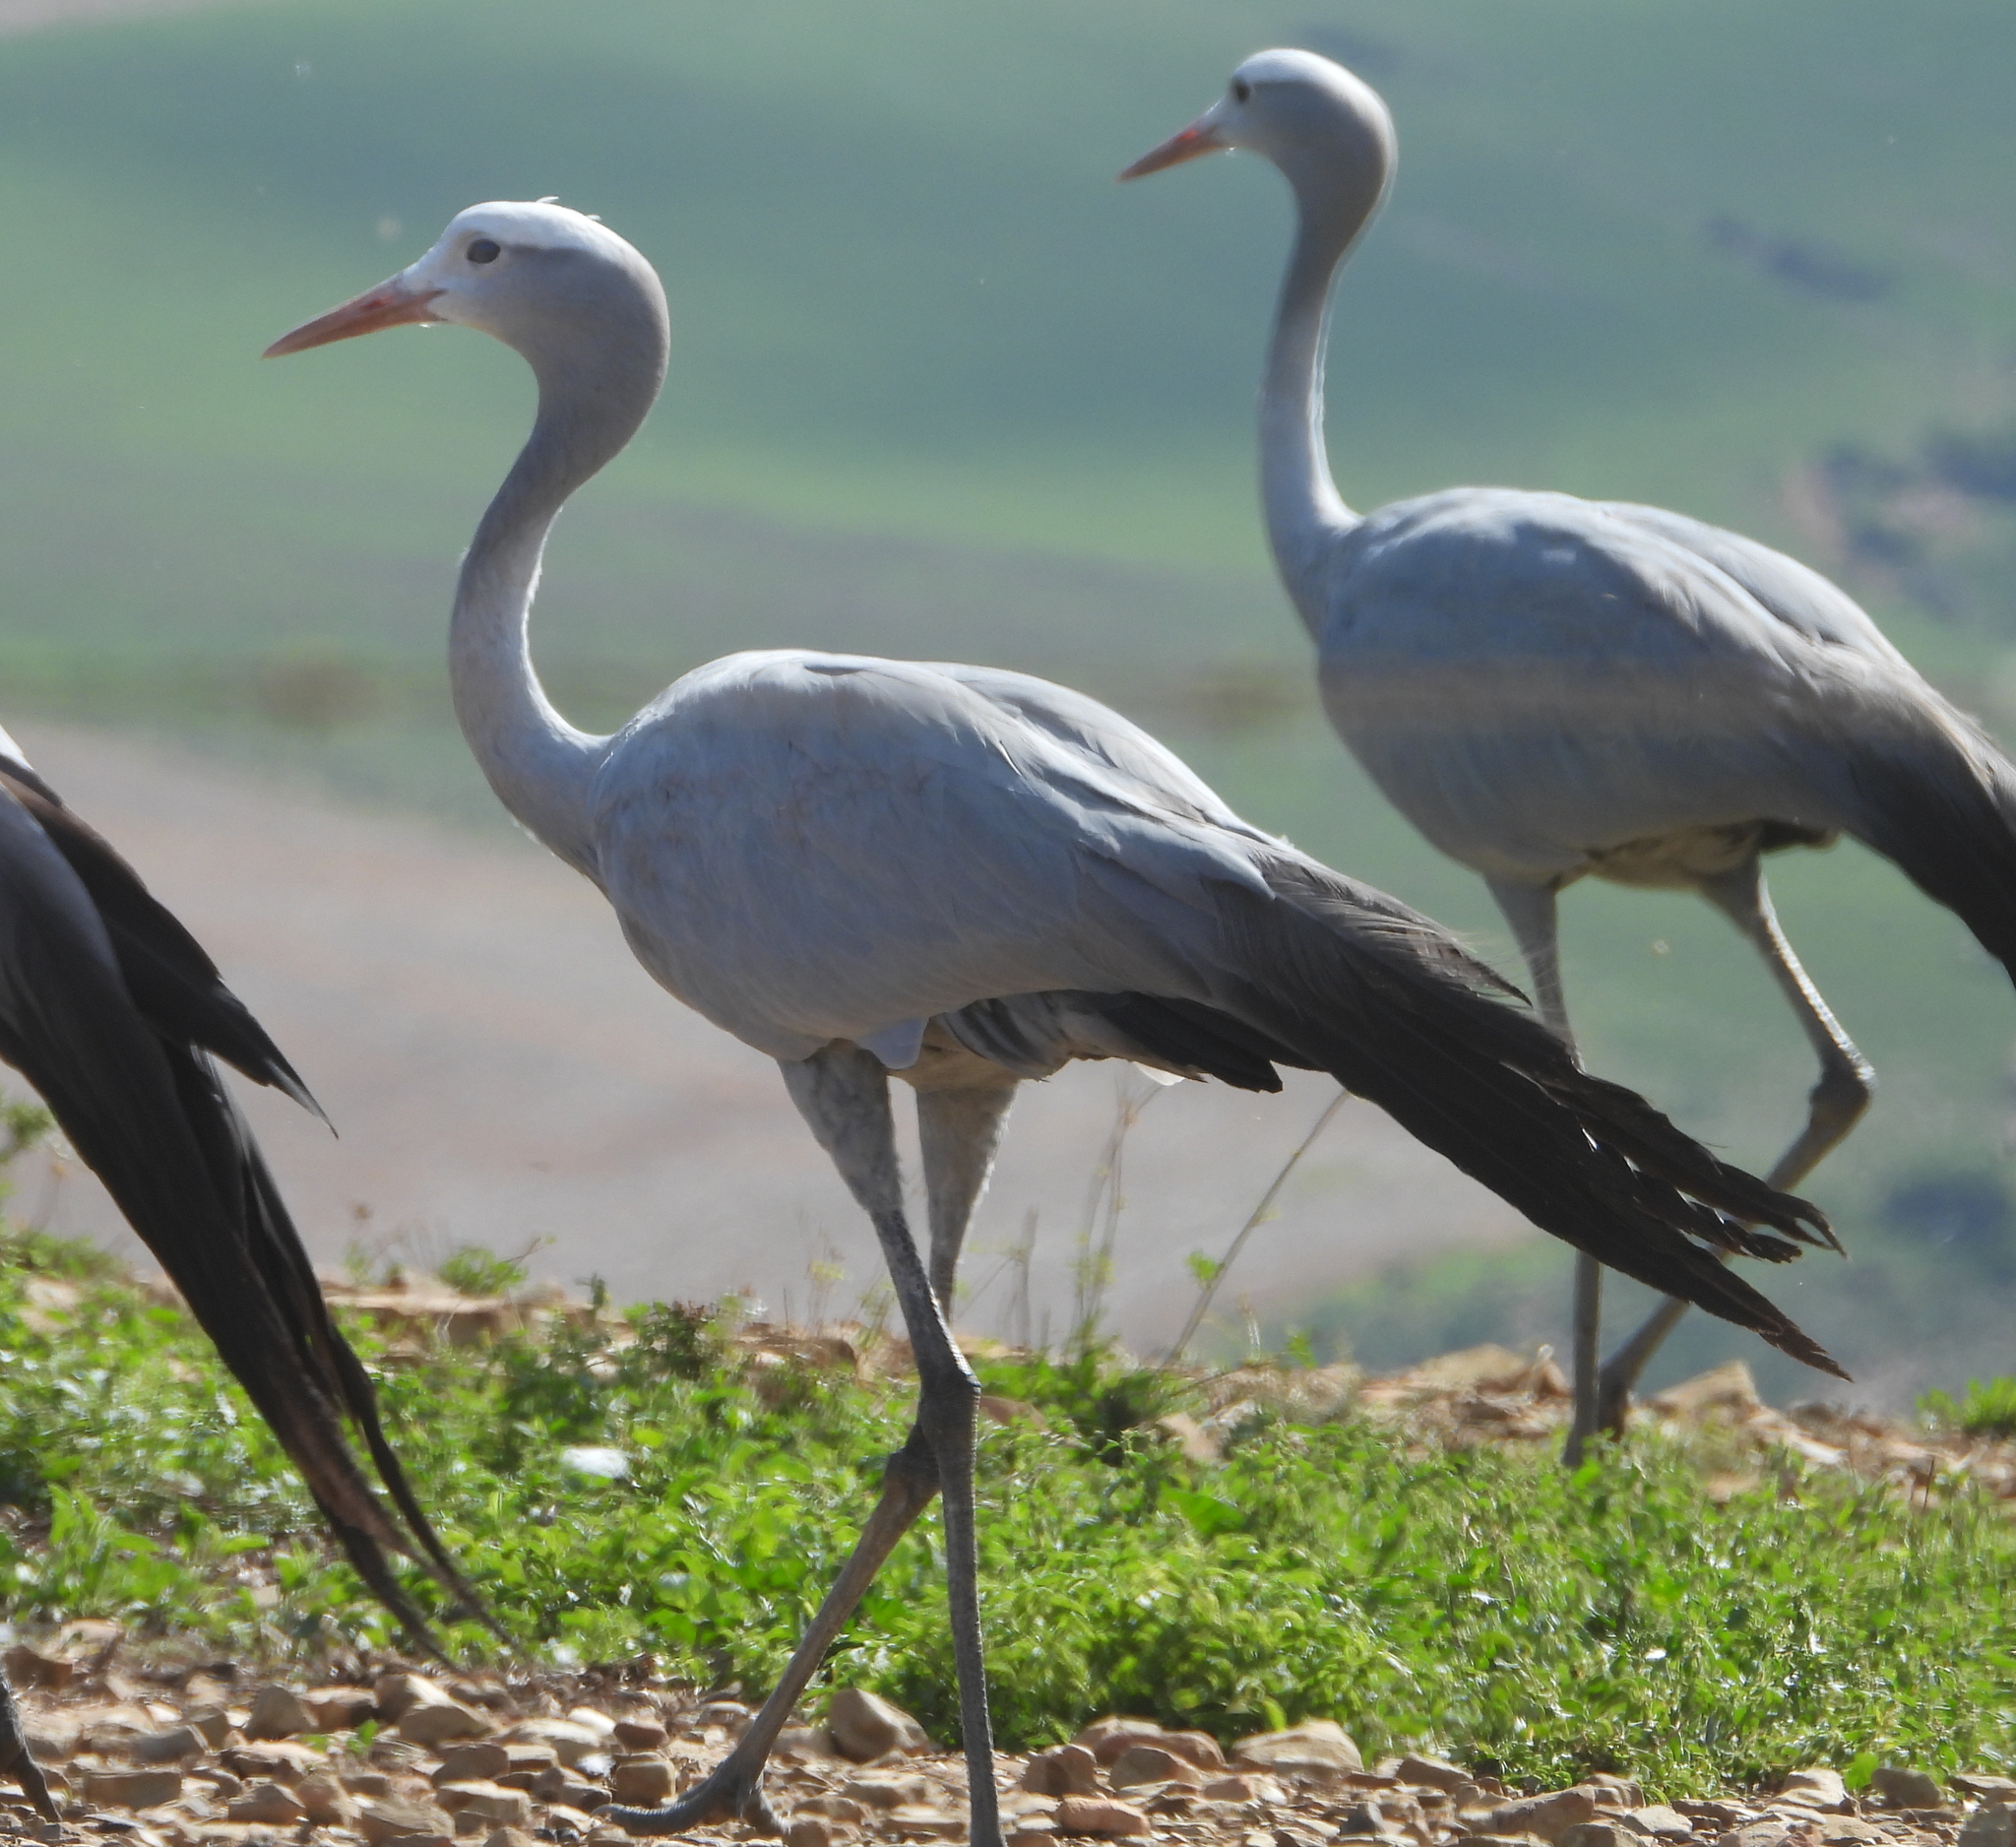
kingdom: Animalia
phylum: Chordata
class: Aves
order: Gruiformes
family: Gruidae
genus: Anthropoides
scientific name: Anthropoides paradiseus
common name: Blue crane
